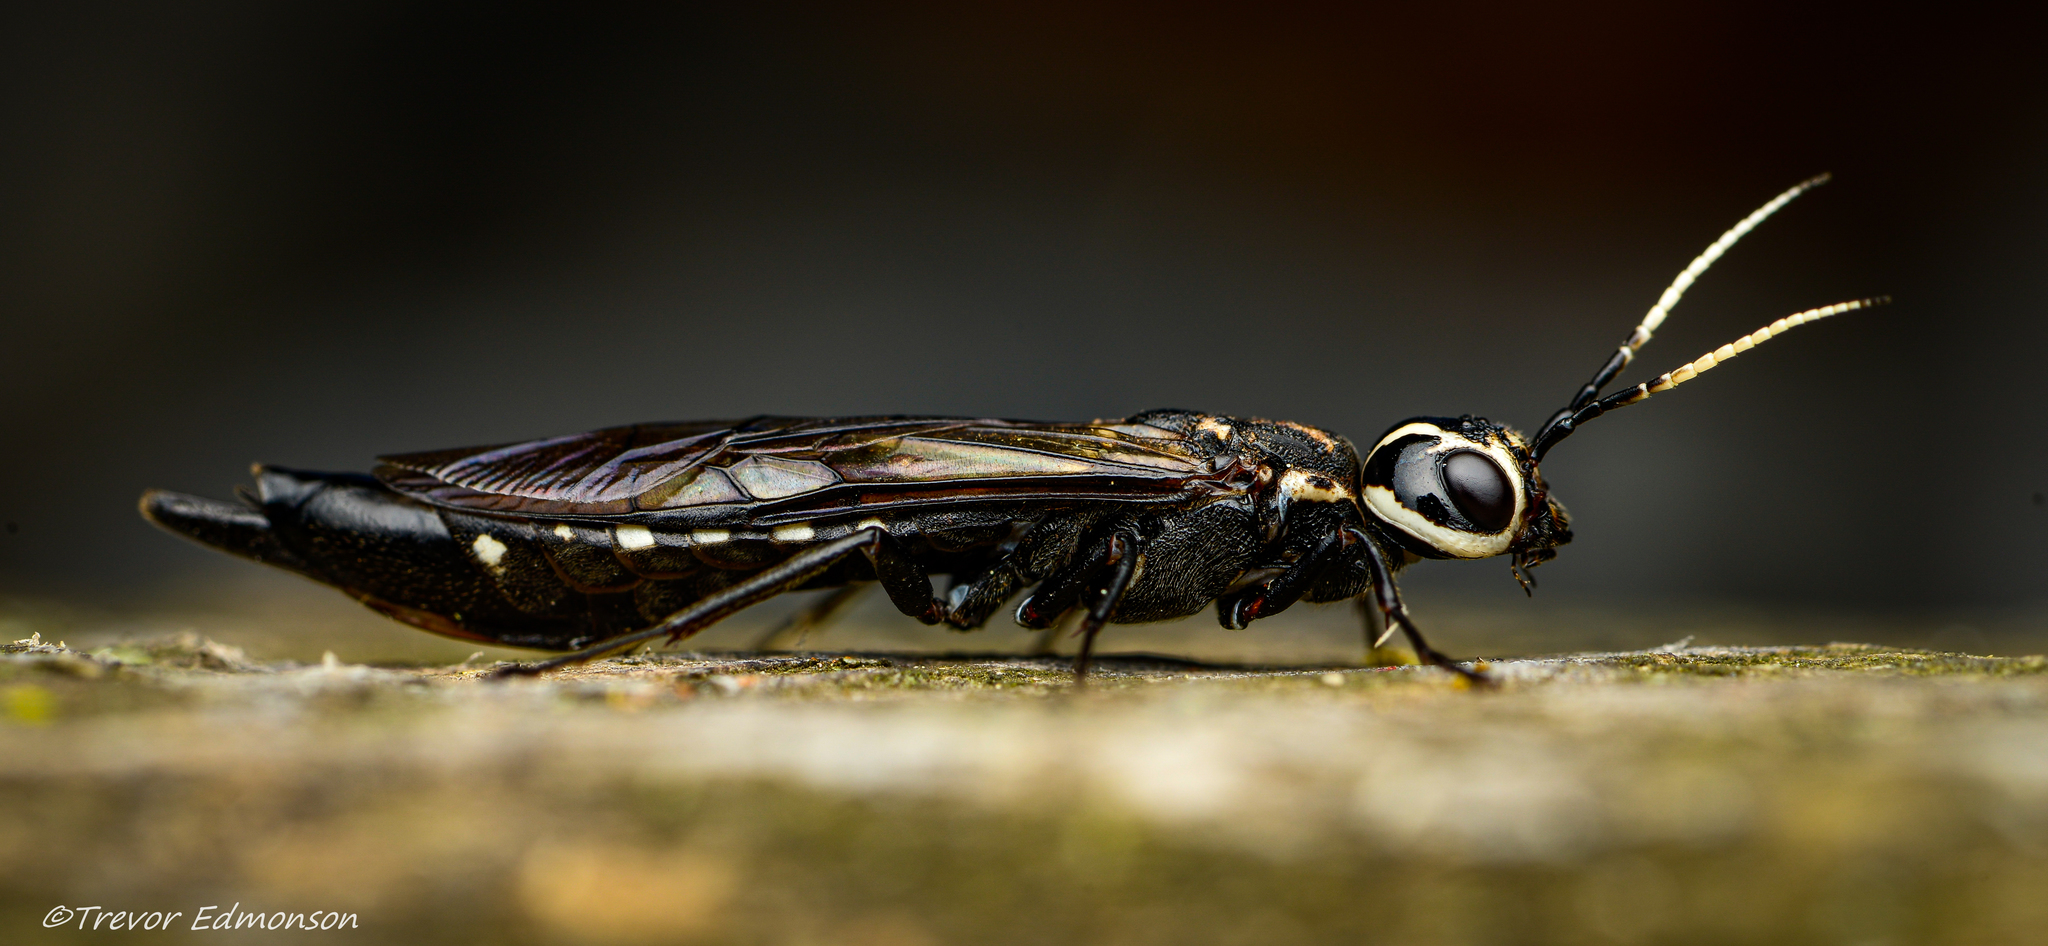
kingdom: Animalia
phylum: Arthropoda
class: Insecta
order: Hymenoptera
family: Xiphydriidae
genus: Xiphydria
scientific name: Xiphydria
